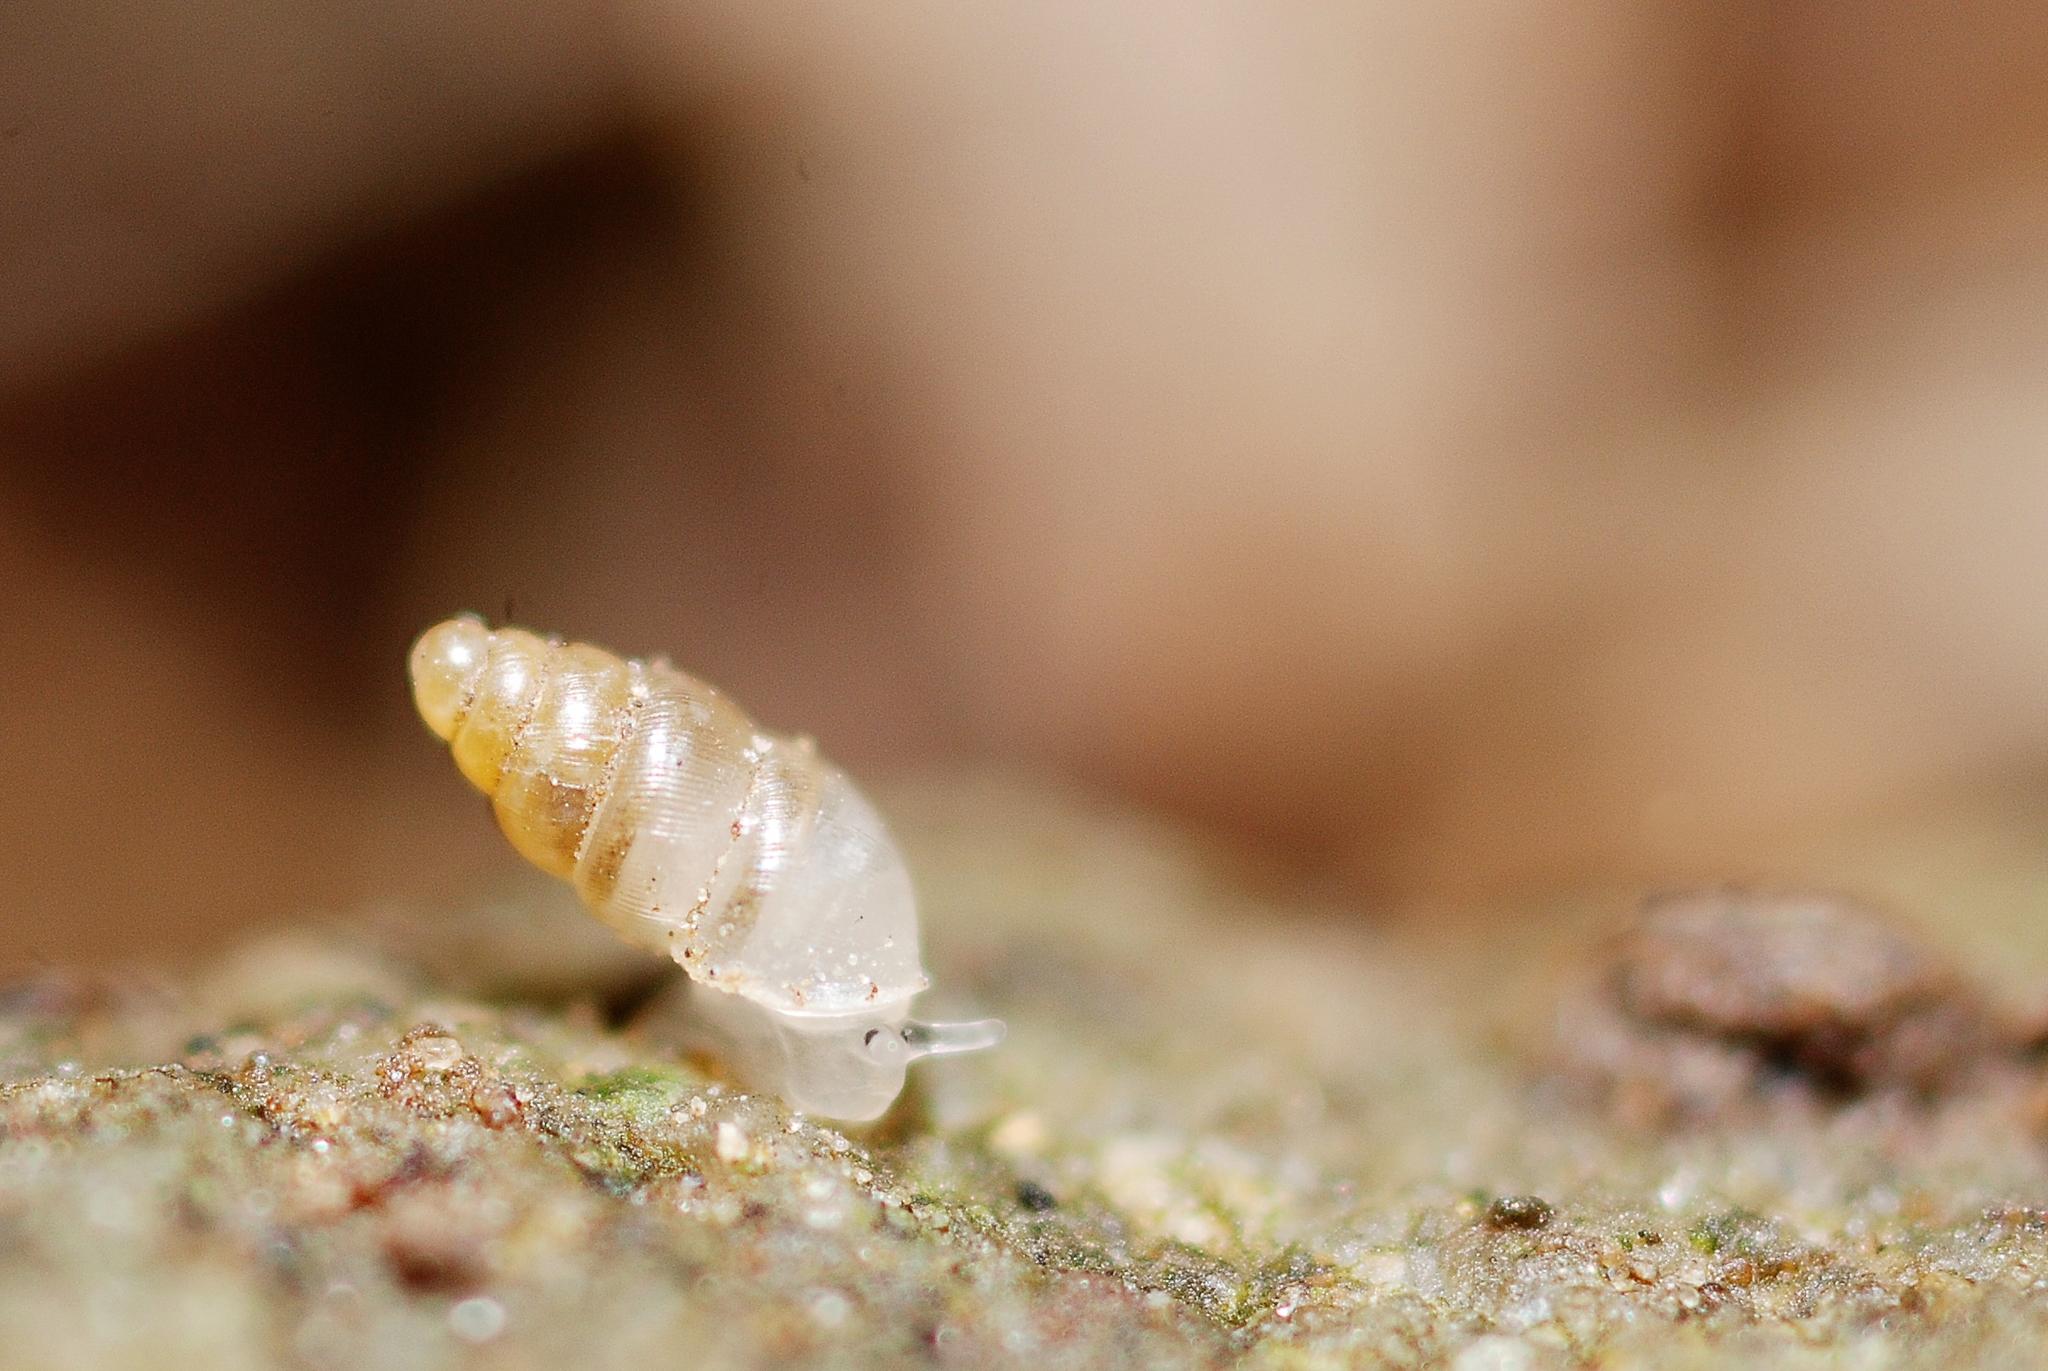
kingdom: Animalia
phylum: Mollusca
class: Gastropoda
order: Ellobiida
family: Ellobiidae
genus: Carychium
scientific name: Carychium tridentatum
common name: Long-toothed herald snail
